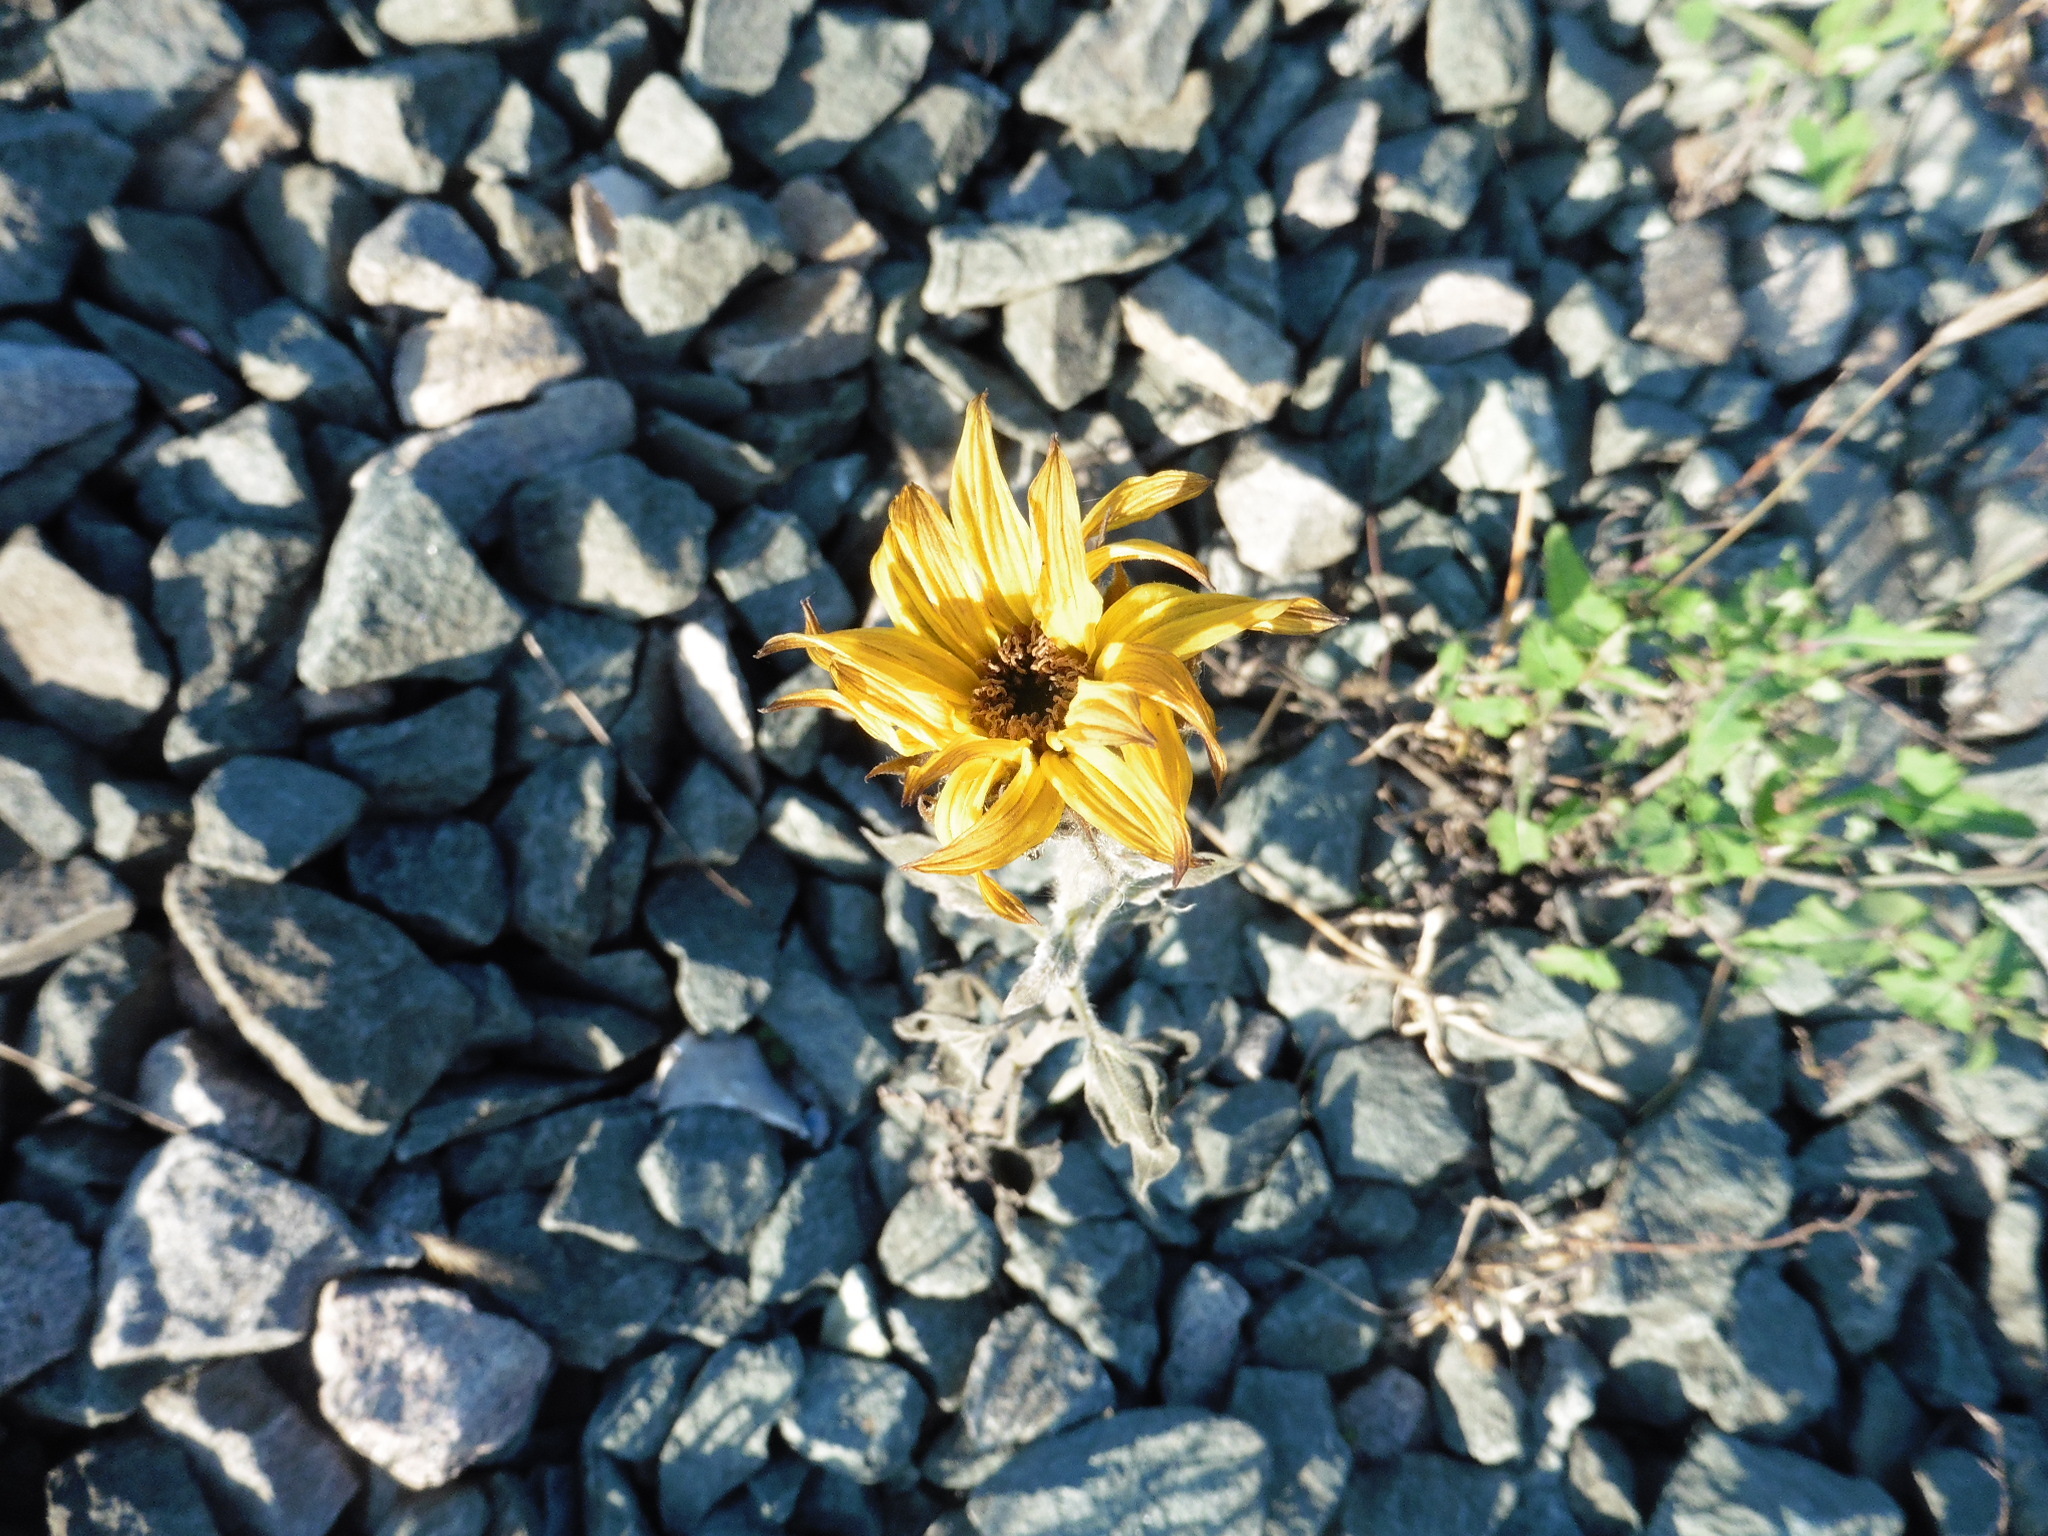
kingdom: Plantae
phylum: Tracheophyta
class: Magnoliopsida
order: Asterales
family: Asteraceae
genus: Helianthus
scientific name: Helianthus annuus
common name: Sunflower
